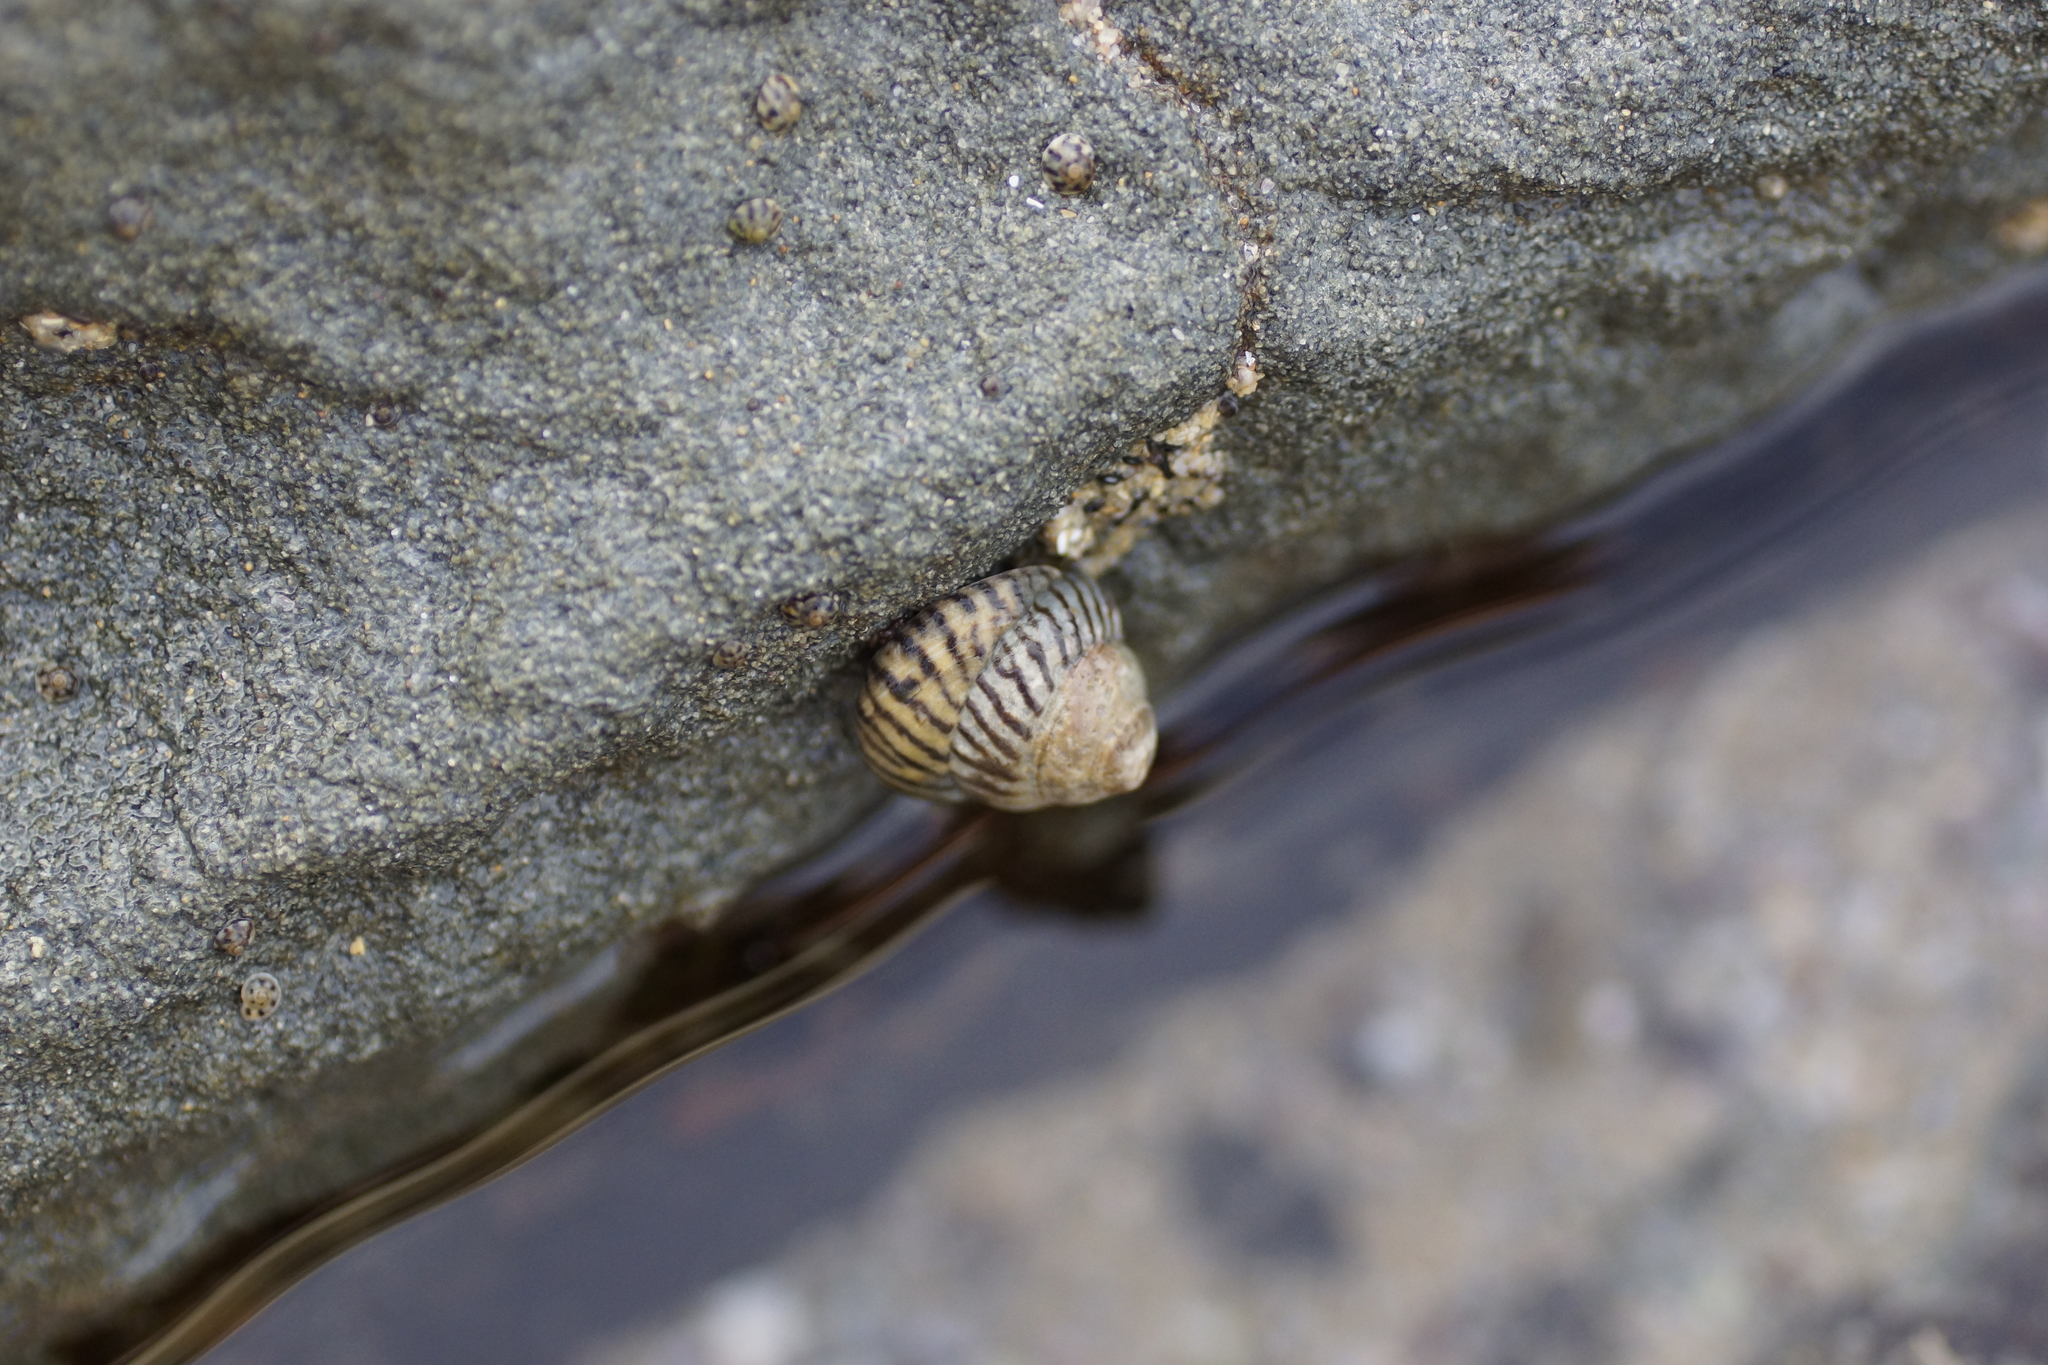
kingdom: Animalia
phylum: Mollusca
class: Gastropoda
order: Littorinimorpha
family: Littorinidae
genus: Bembicium
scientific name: Bembicium nanum
